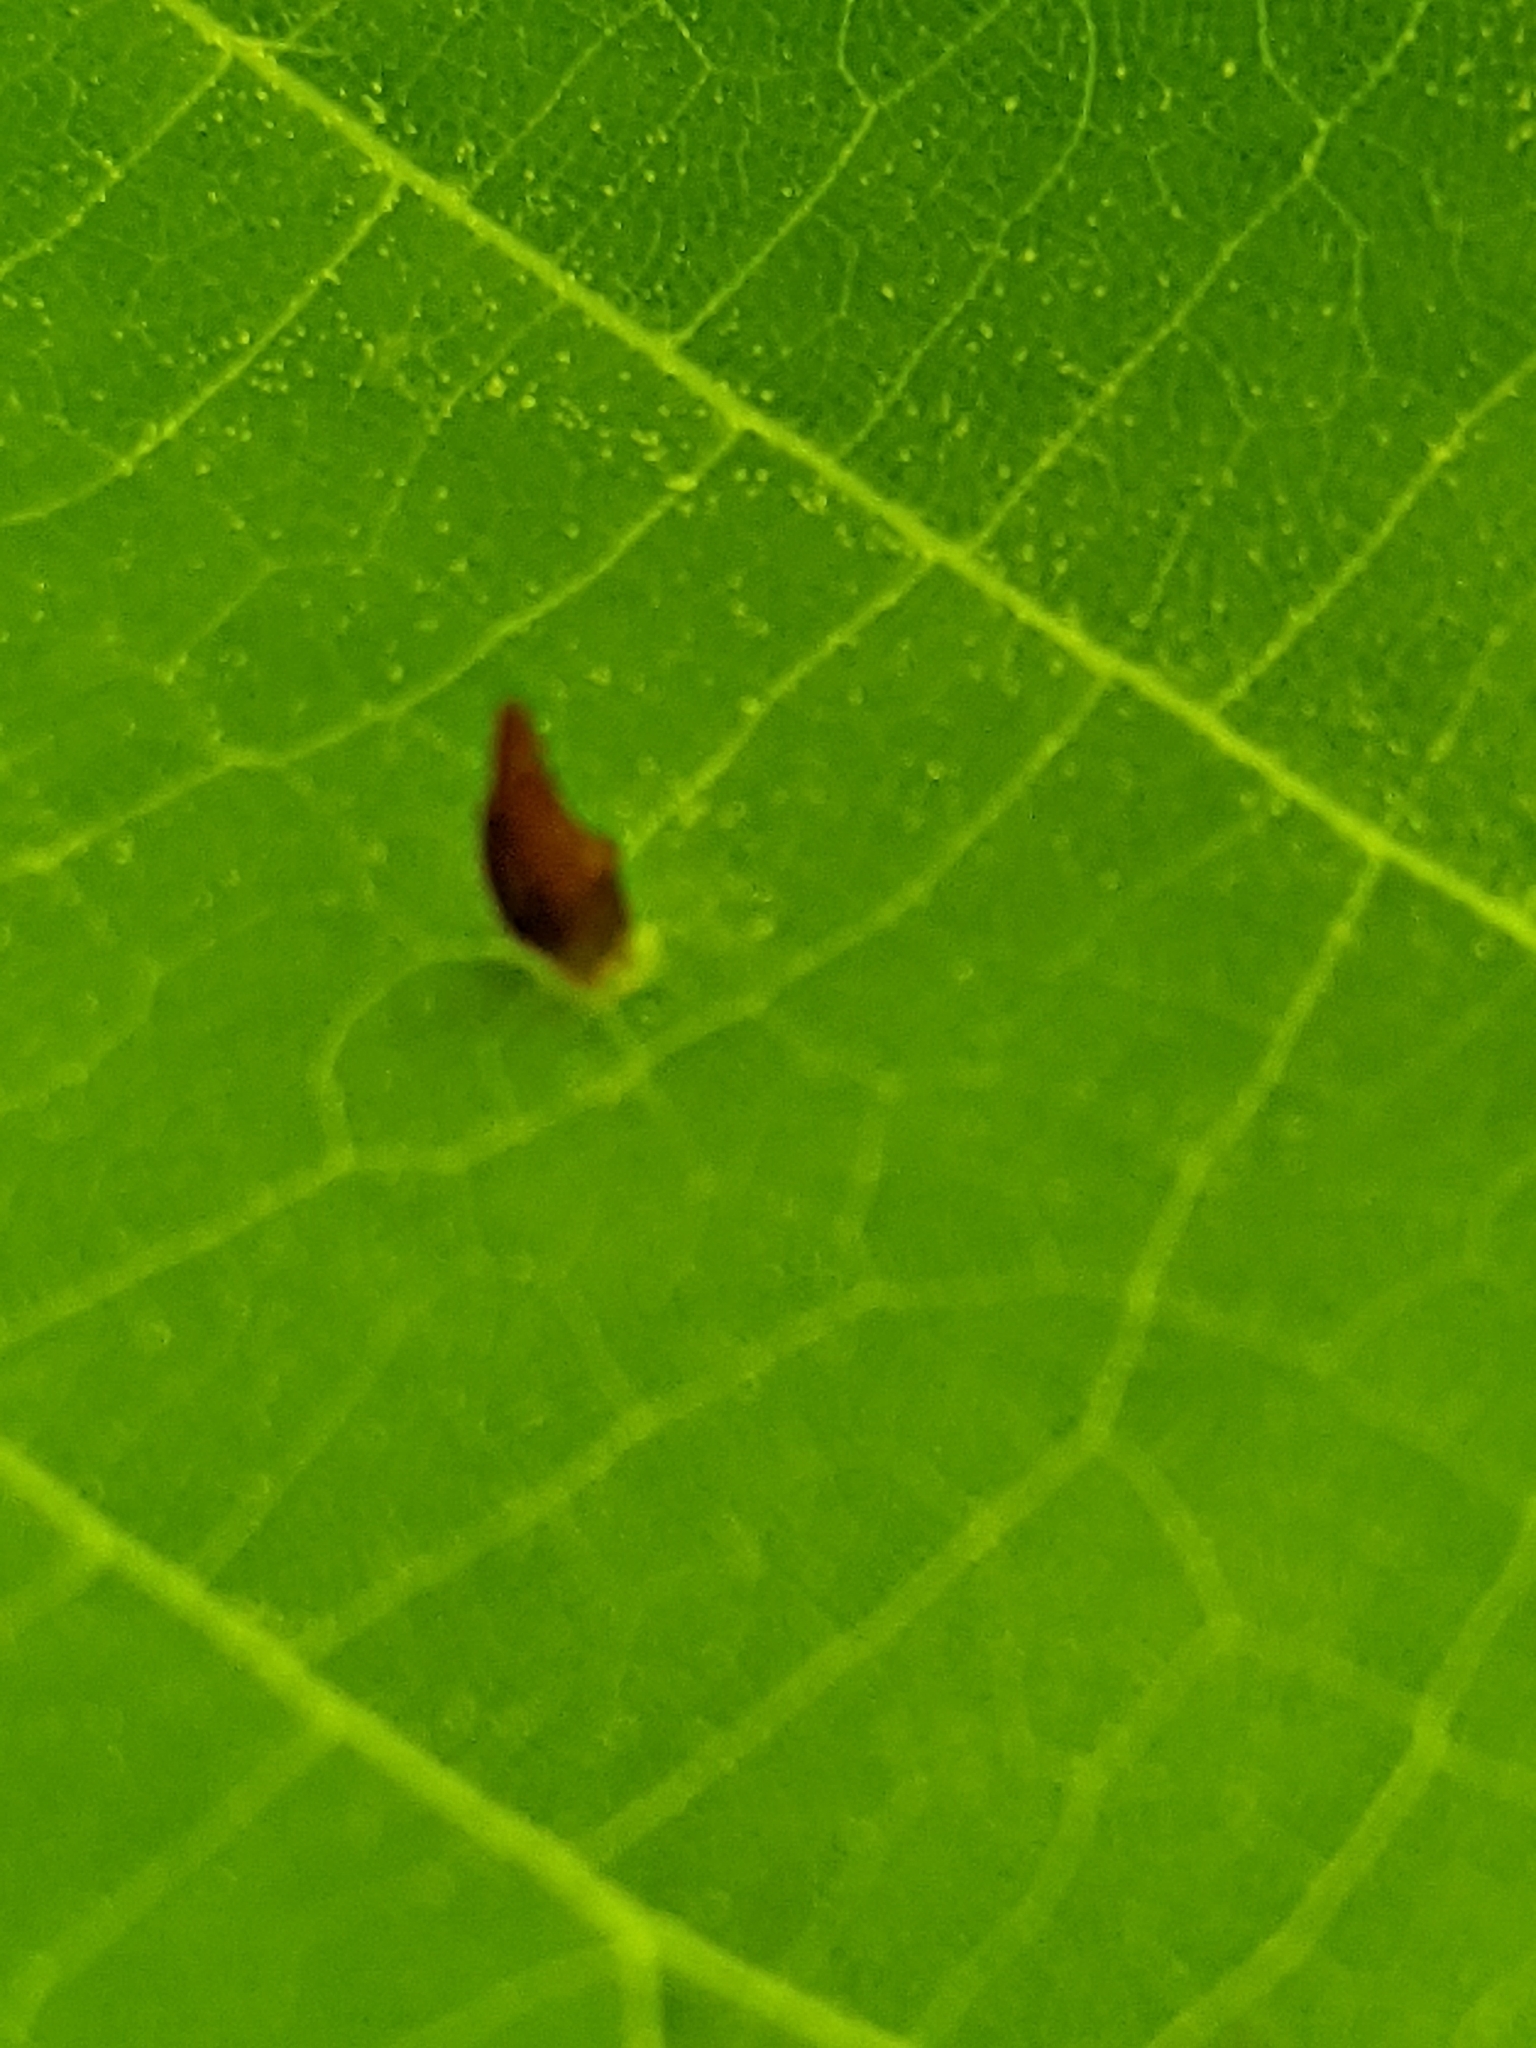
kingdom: Animalia
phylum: Arthropoda
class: Arachnida
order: Trombidiformes
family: Eriophyidae
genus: Eriophyes
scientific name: Eriophyes tiliae
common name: Red nail gall mite
